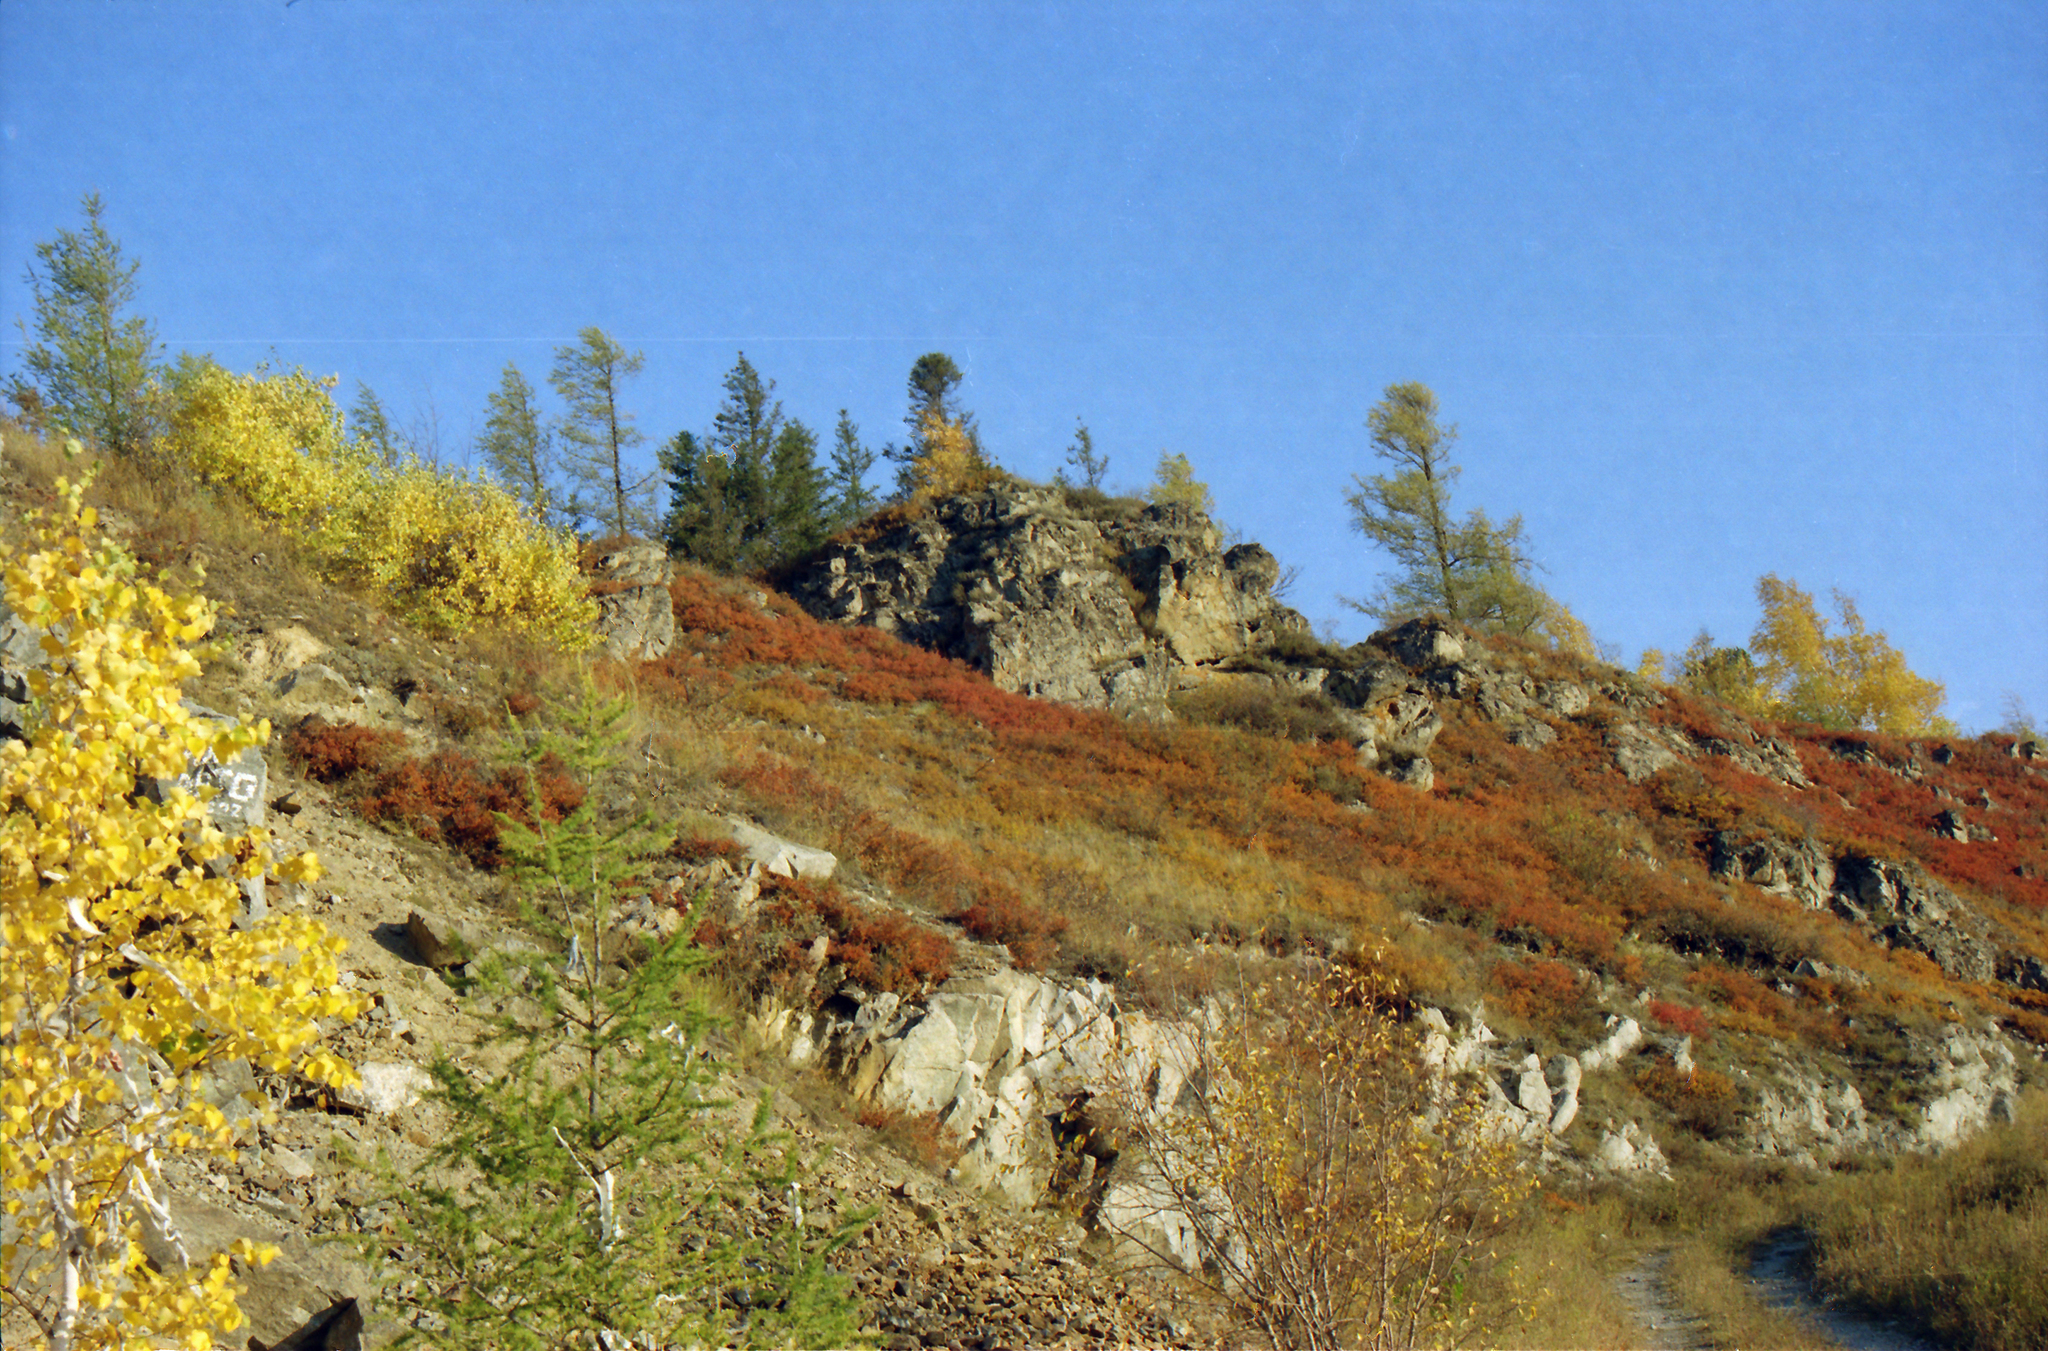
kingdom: Plantae
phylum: Tracheophyta
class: Pinopsida
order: Pinales
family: Pinaceae
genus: Larix
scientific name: Larix sibirica
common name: Siberian larch
